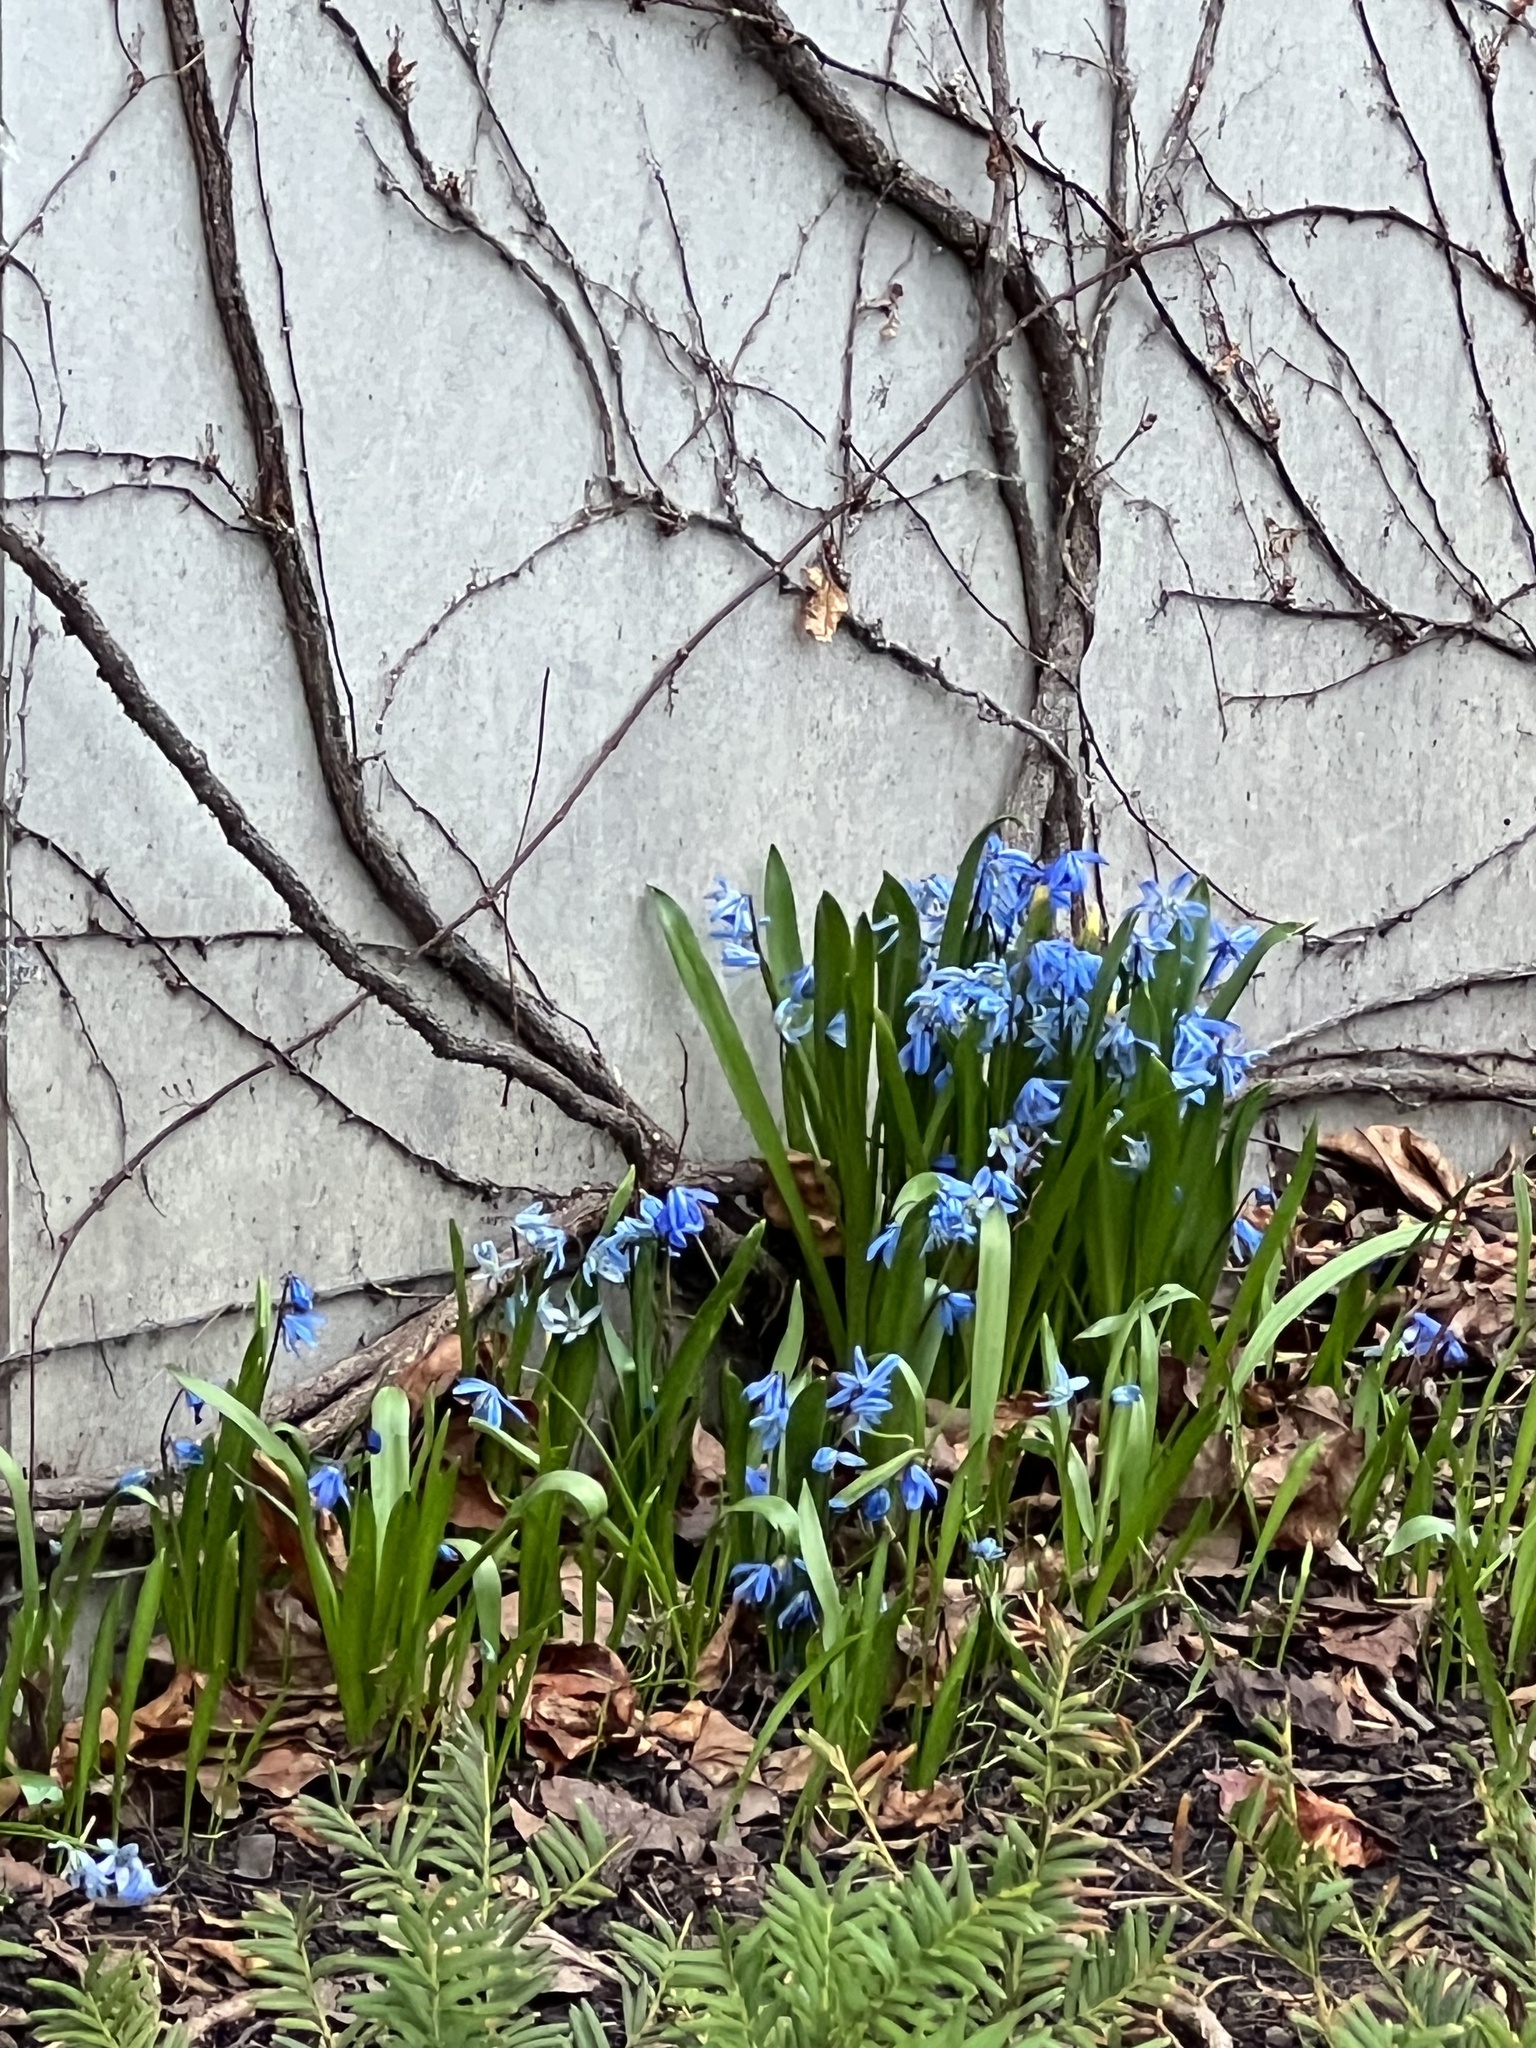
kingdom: Plantae
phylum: Tracheophyta
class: Liliopsida
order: Asparagales
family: Asparagaceae
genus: Scilla
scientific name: Scilla siberica
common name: Siberian squill
